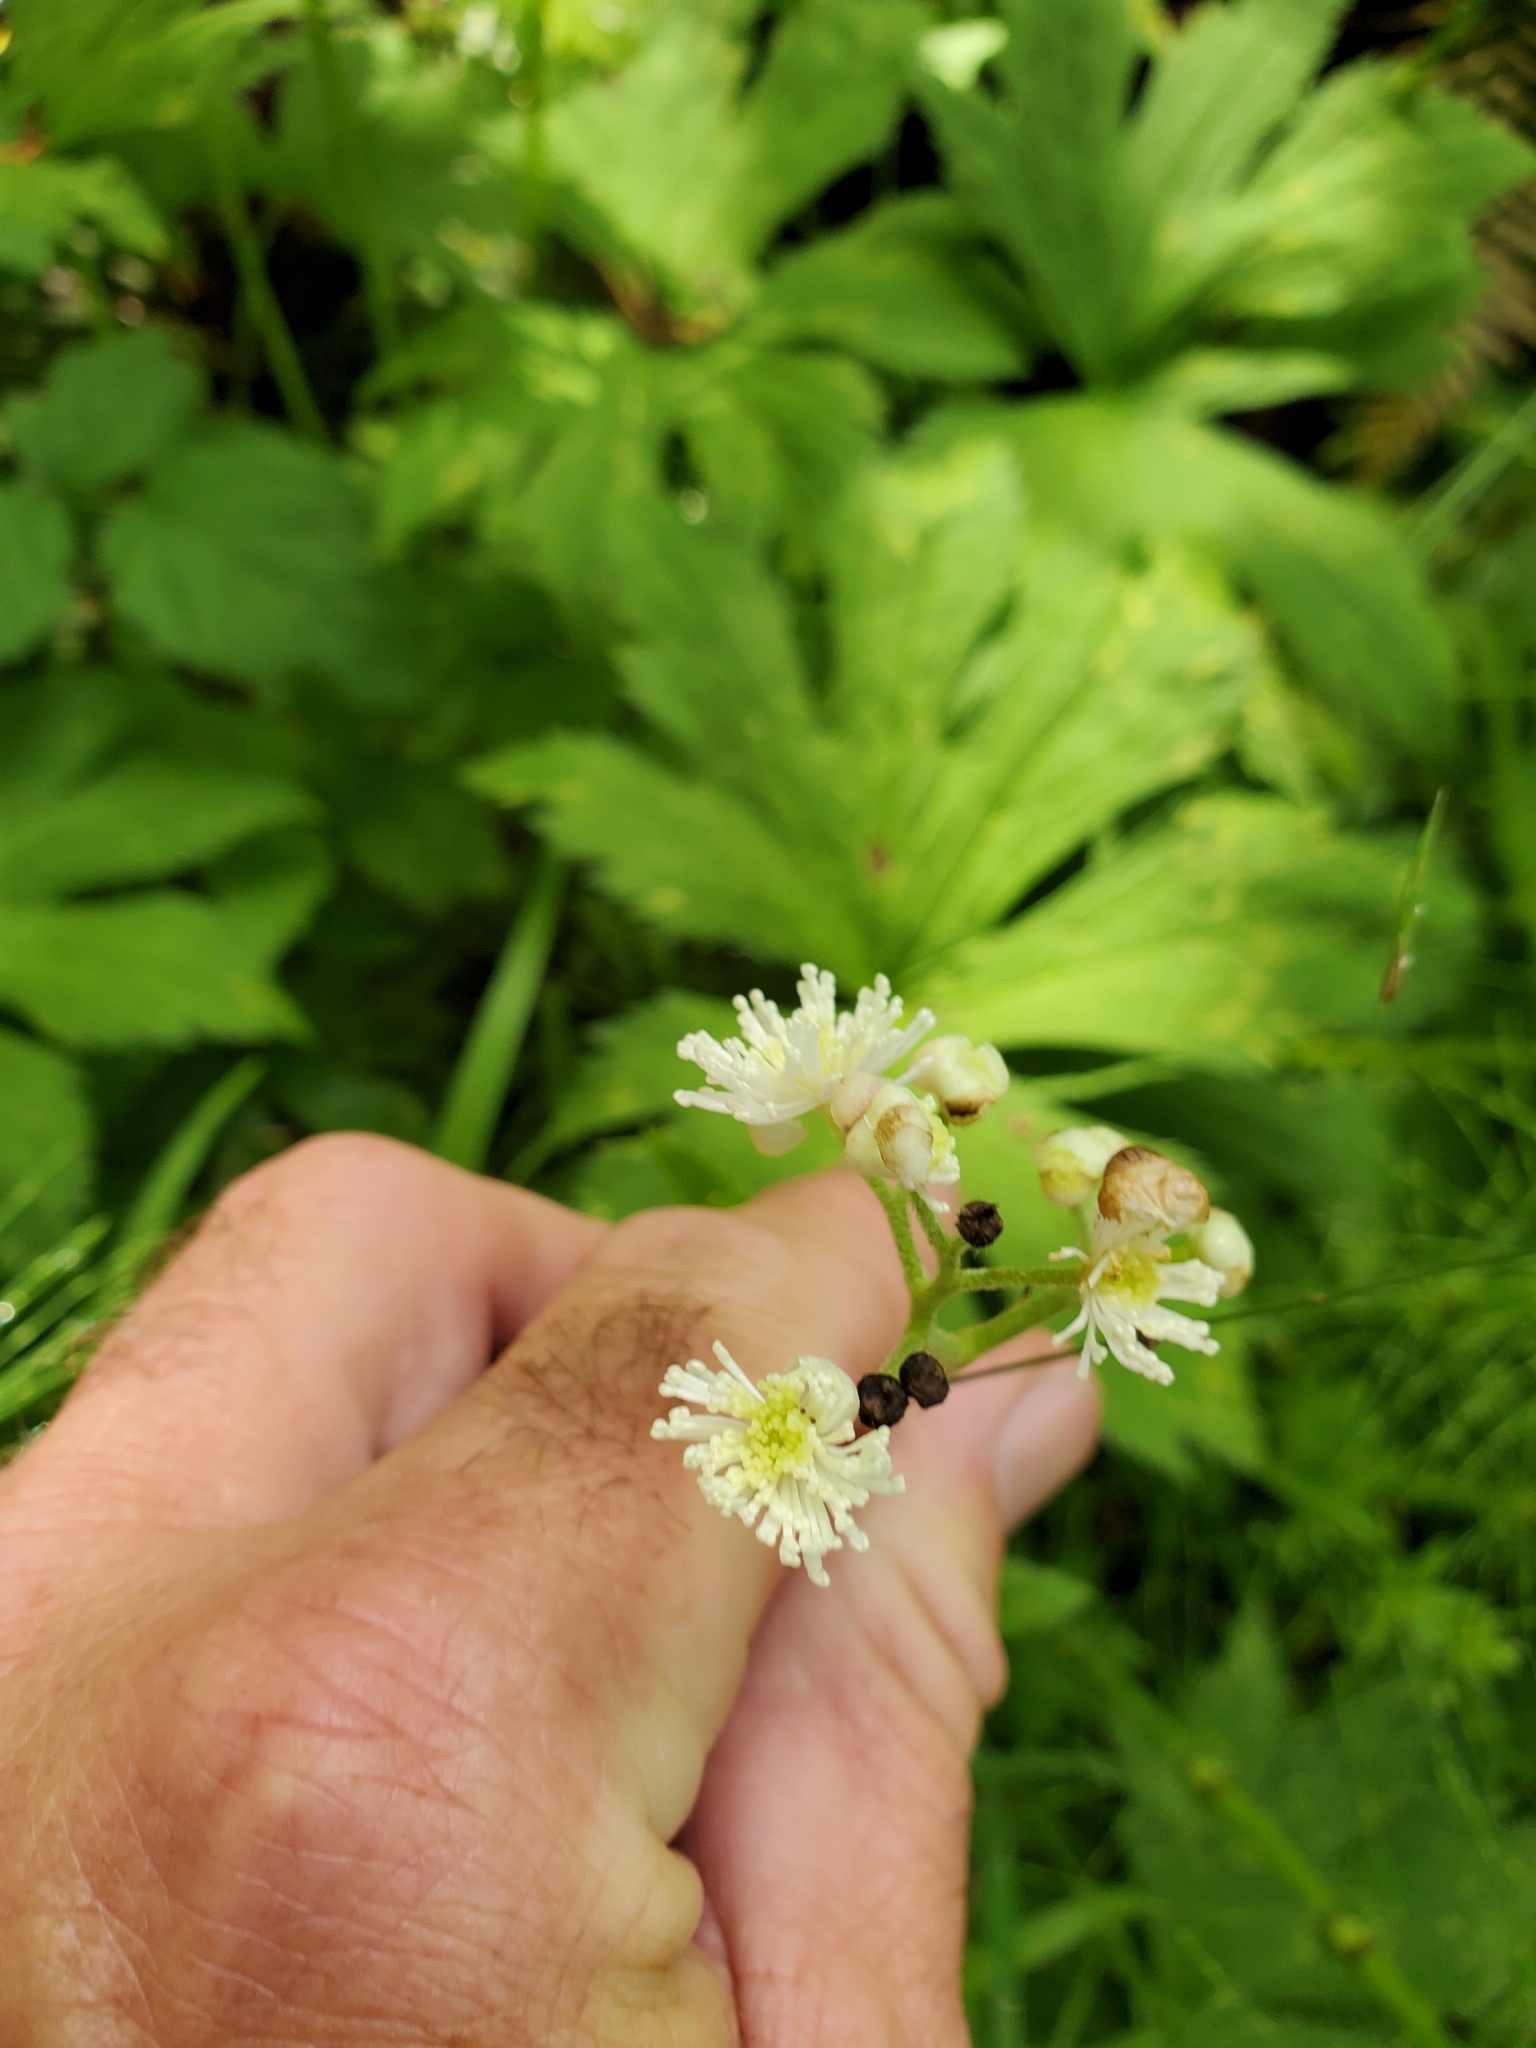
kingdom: Plantae
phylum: Tracheophyta
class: Magnoliopsida
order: Ranunculales
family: Ranunculaceae
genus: Trautvetteria
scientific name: Trautvetteria carolinensis
